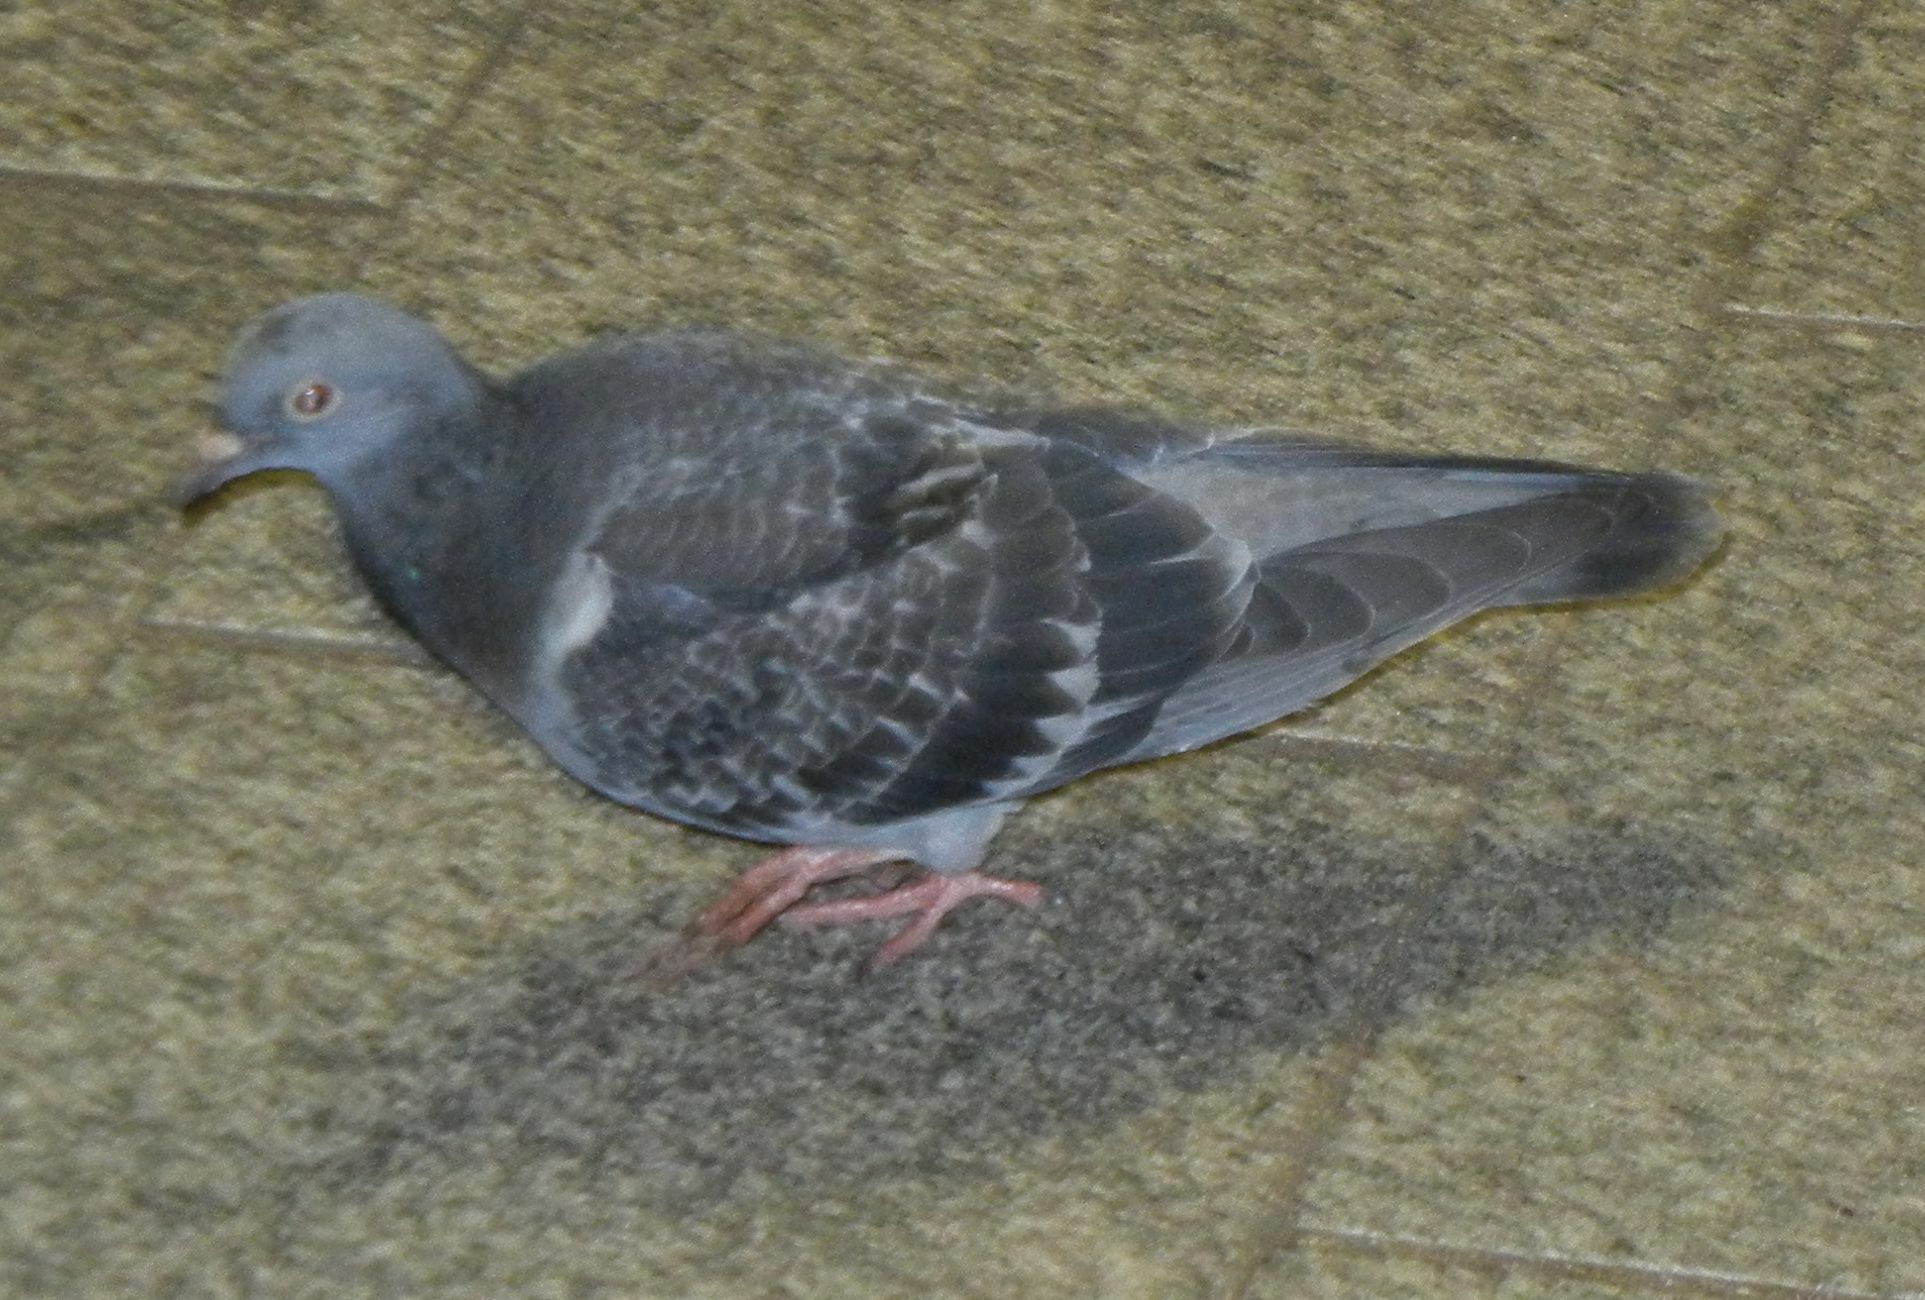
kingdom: Animalia
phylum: Chordata
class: Aves
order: Columbiformes
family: Columbidae
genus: Columba
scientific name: Columba livia
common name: Rock pigeon
